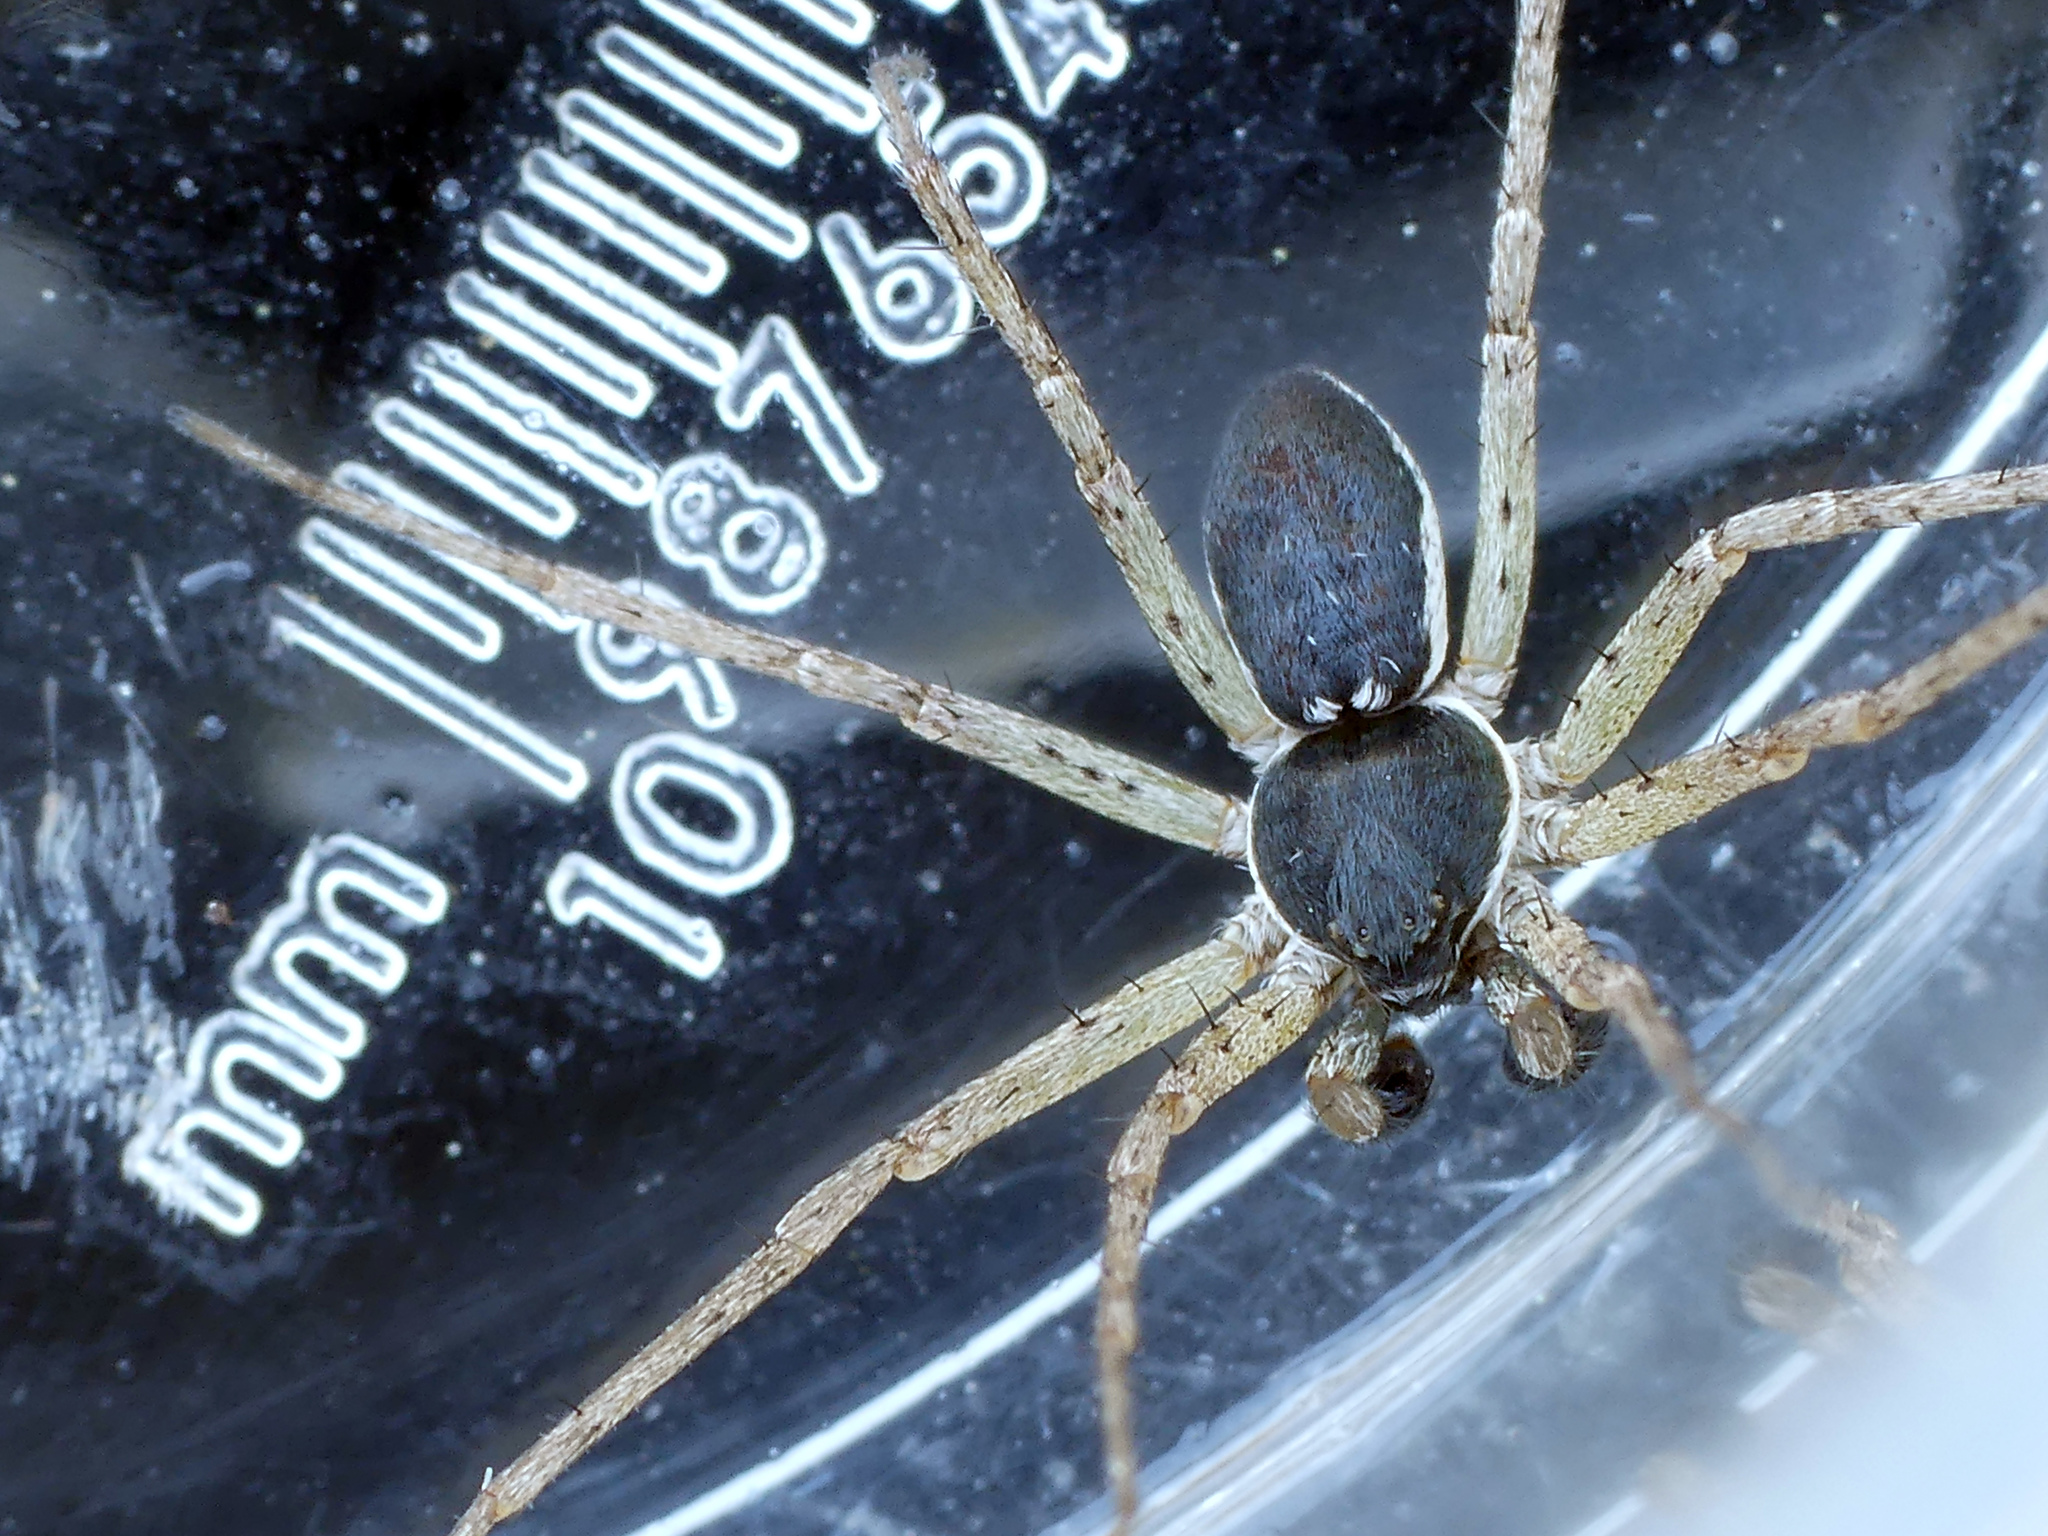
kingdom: Animalia
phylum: Arthropoda
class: Arachnida
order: Araneae
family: Philodromidae
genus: Philodromus
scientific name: Philodromus dispar
